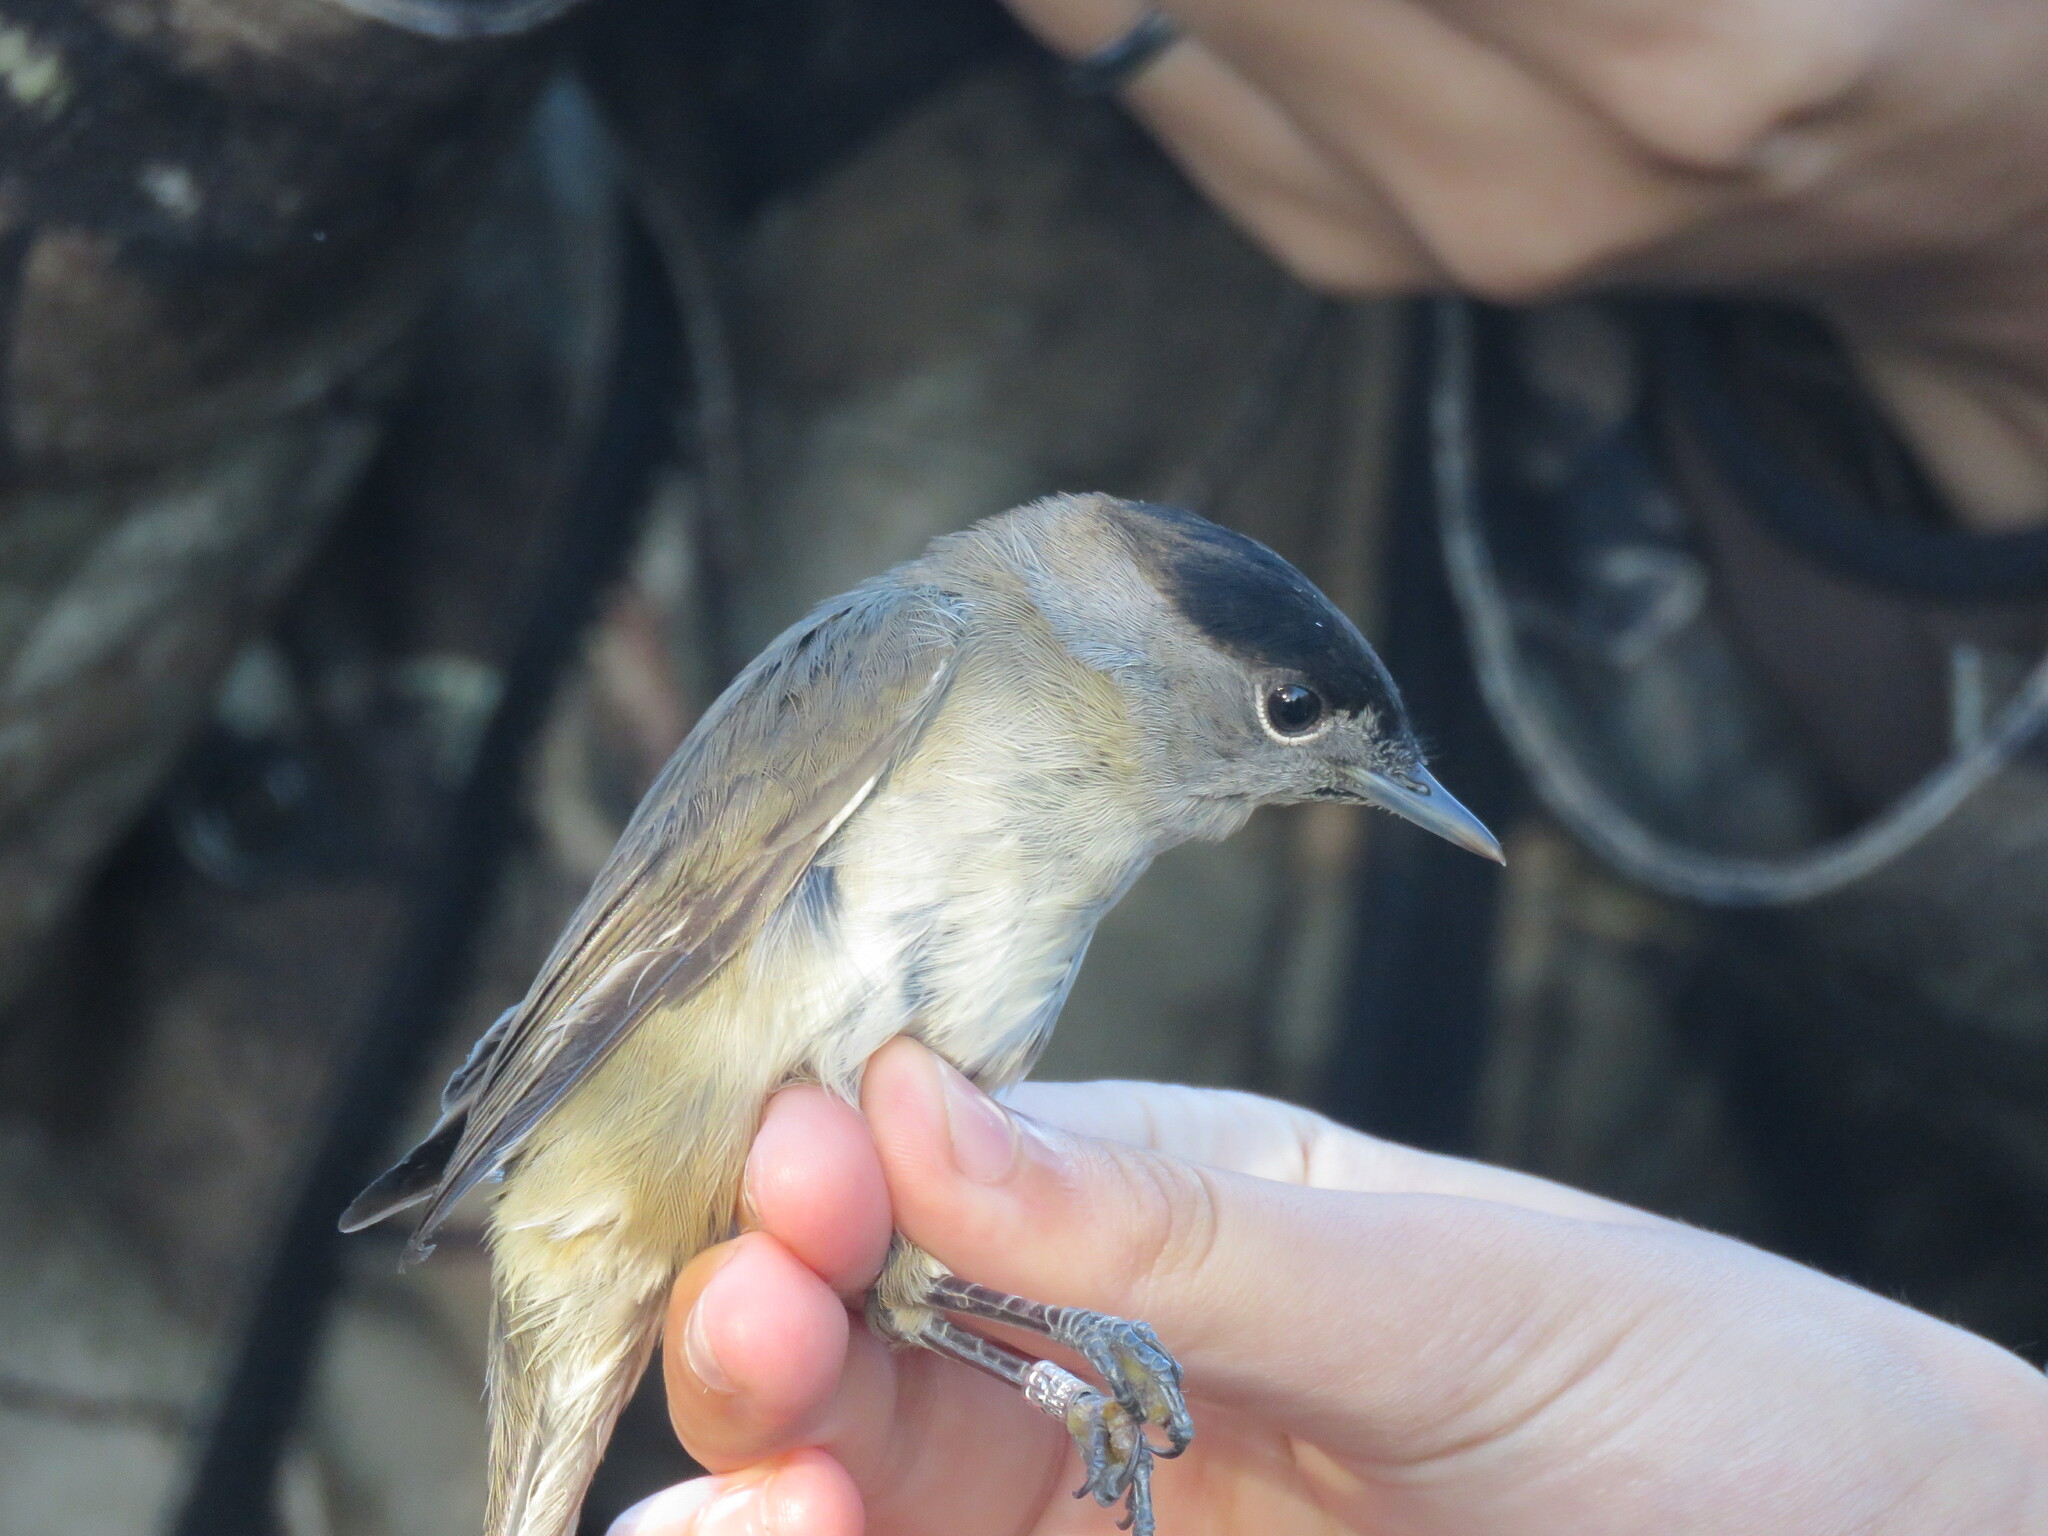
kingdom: Animalia
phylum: Chordata
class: Aves
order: Passeriformes
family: Sylviidae
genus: Sylvia
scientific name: Sylvia atricapilla
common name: Eurasian blackcap
